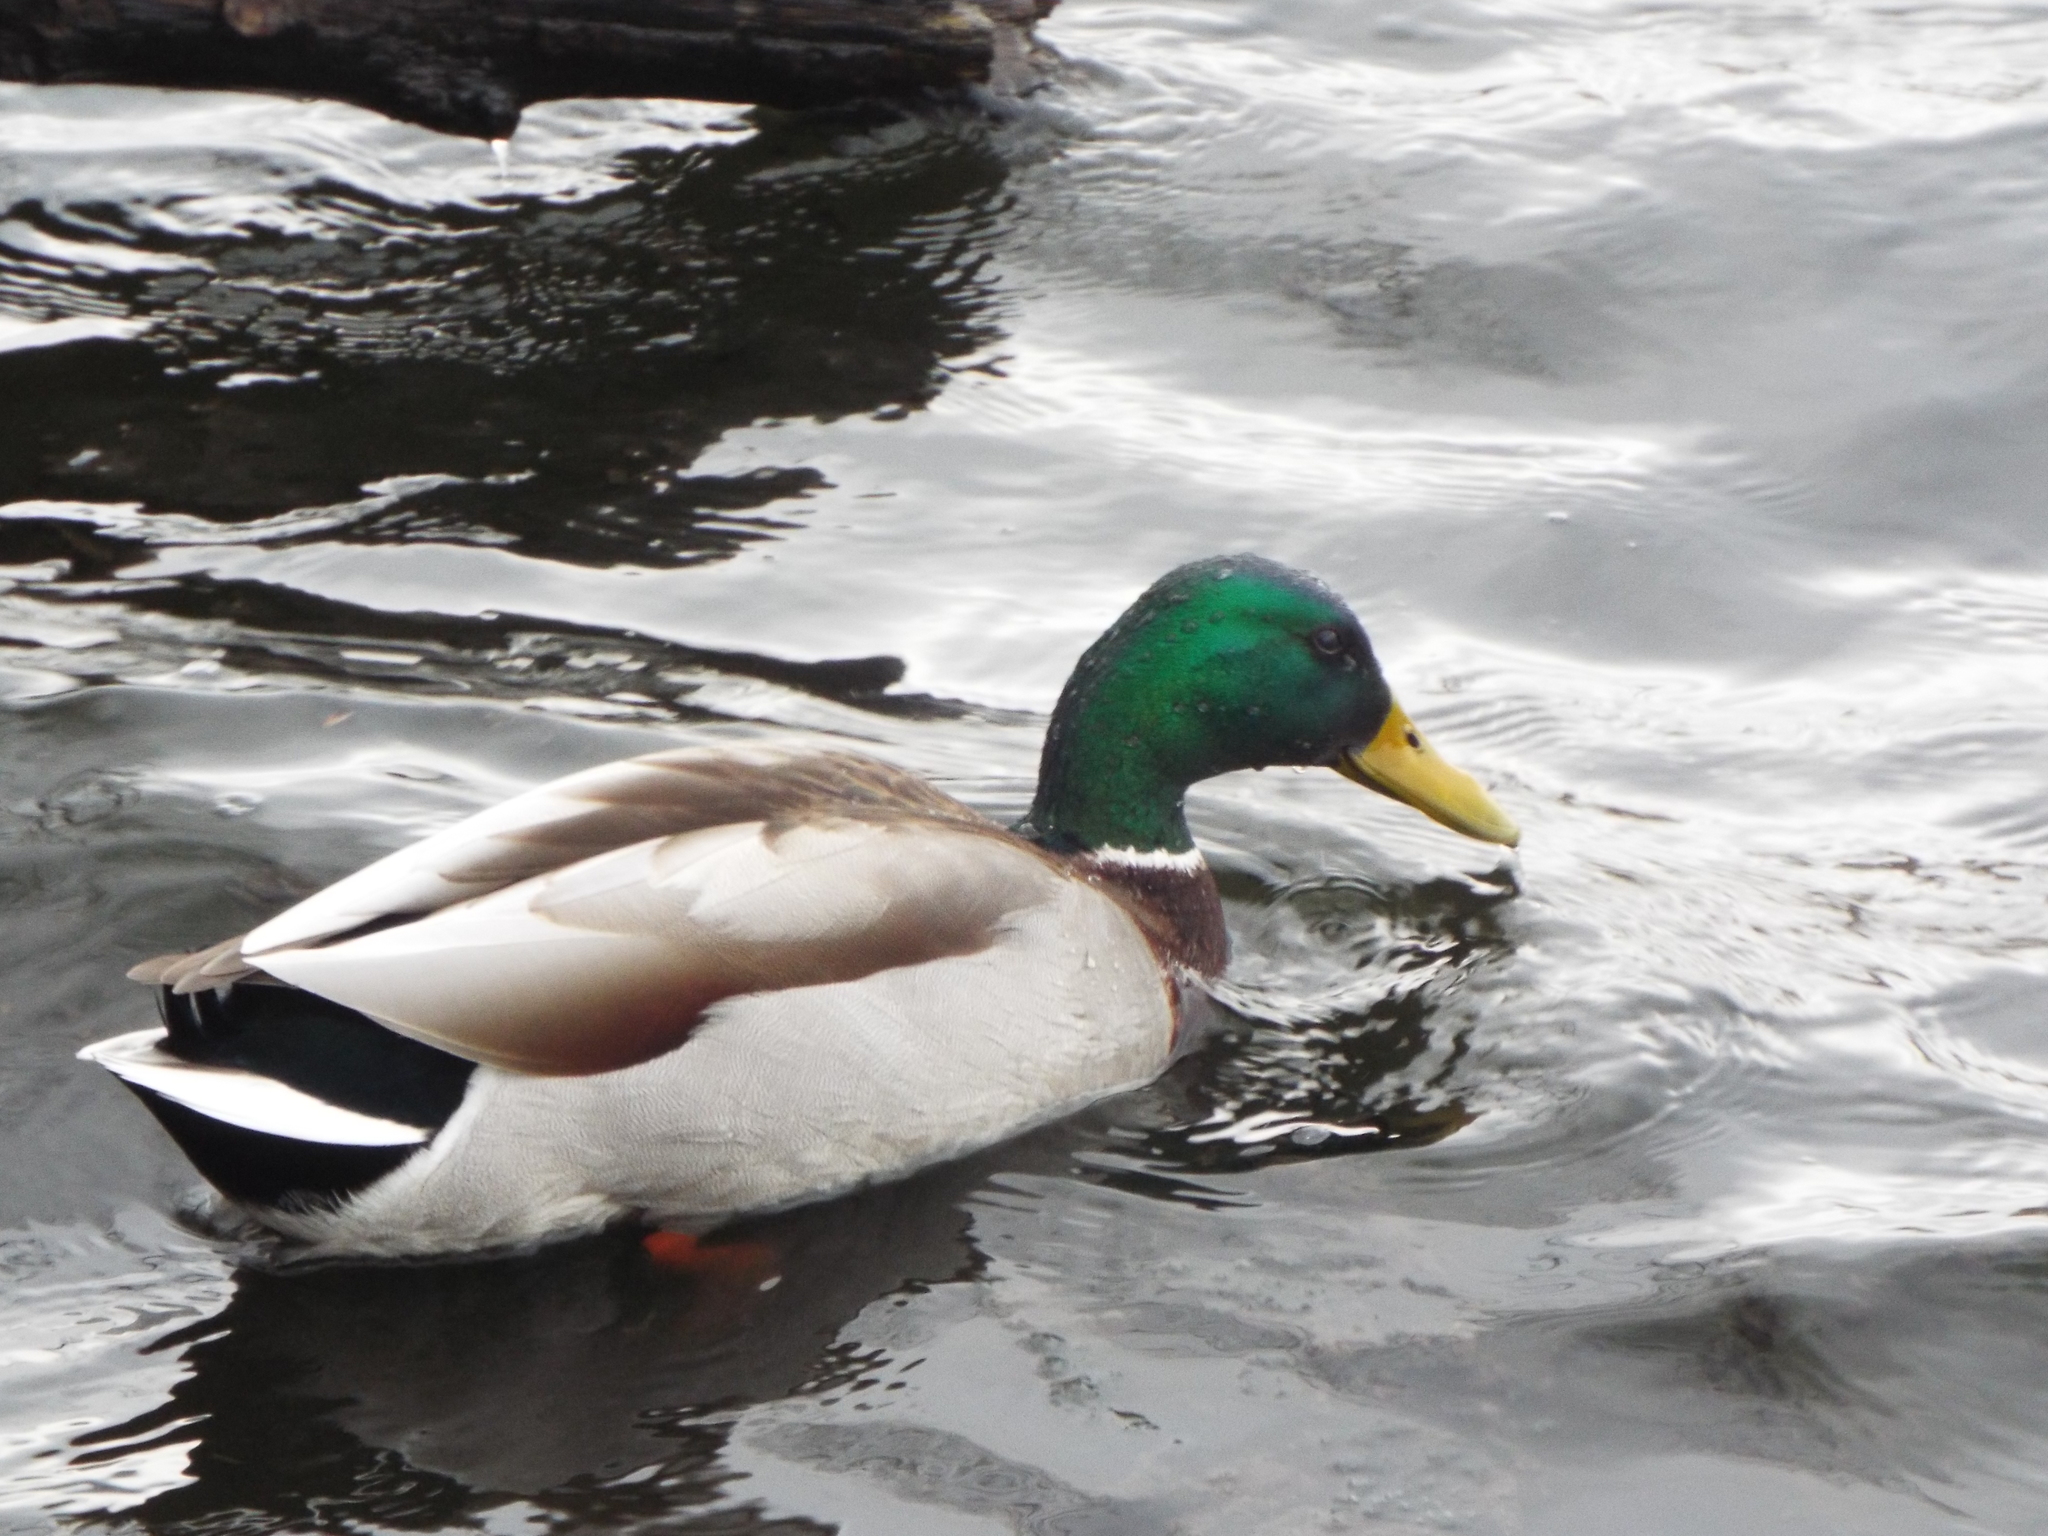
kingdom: Animalia
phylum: Chordata
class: Aves
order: Anseriformes
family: Anatidae
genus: Anas
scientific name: Anas platyrhynchos
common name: Mallard
